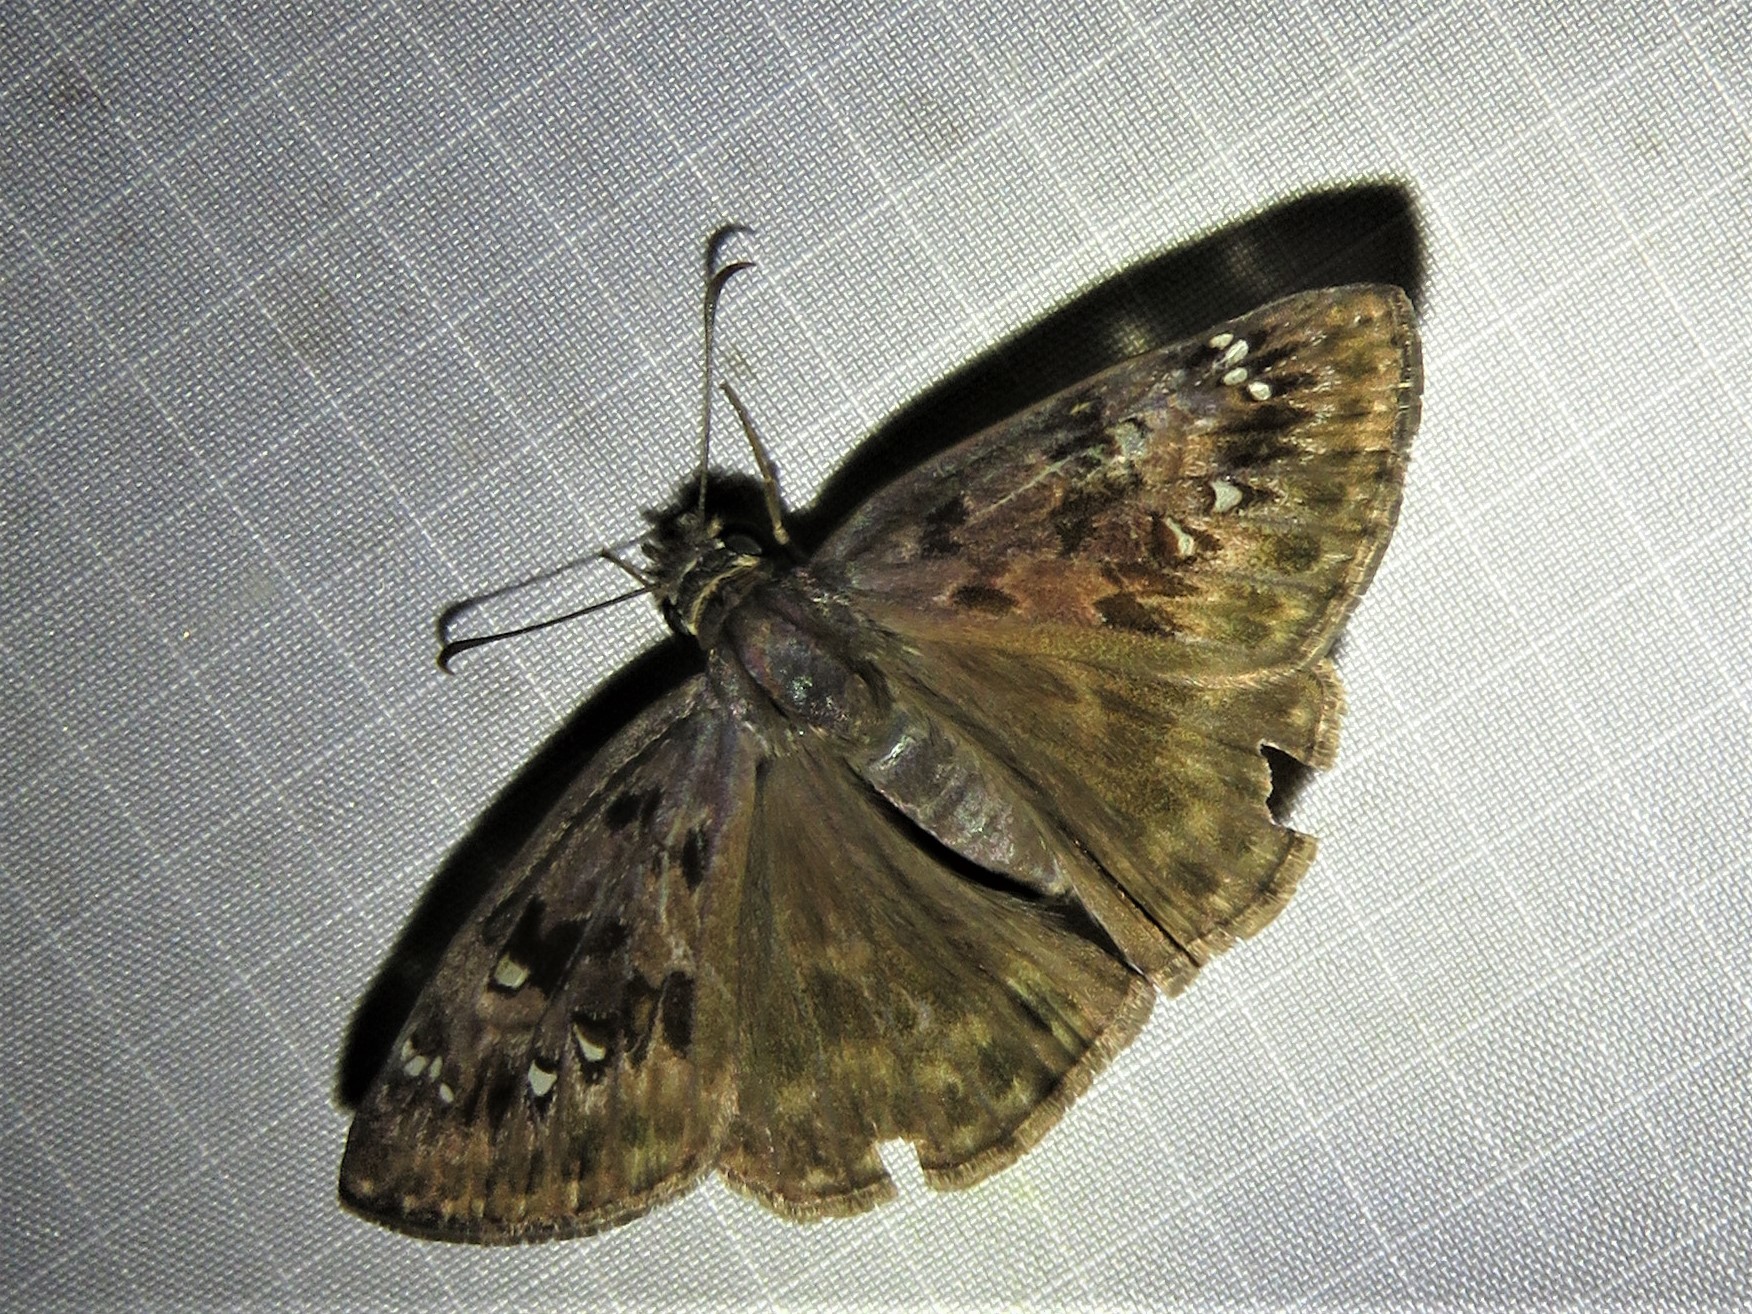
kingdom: Animalia
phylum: Arthropoda
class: Insecta
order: Lepidoptera
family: Hesperiidae
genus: Erynnis
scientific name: Erynnis horatius
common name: Horace's duskywing
